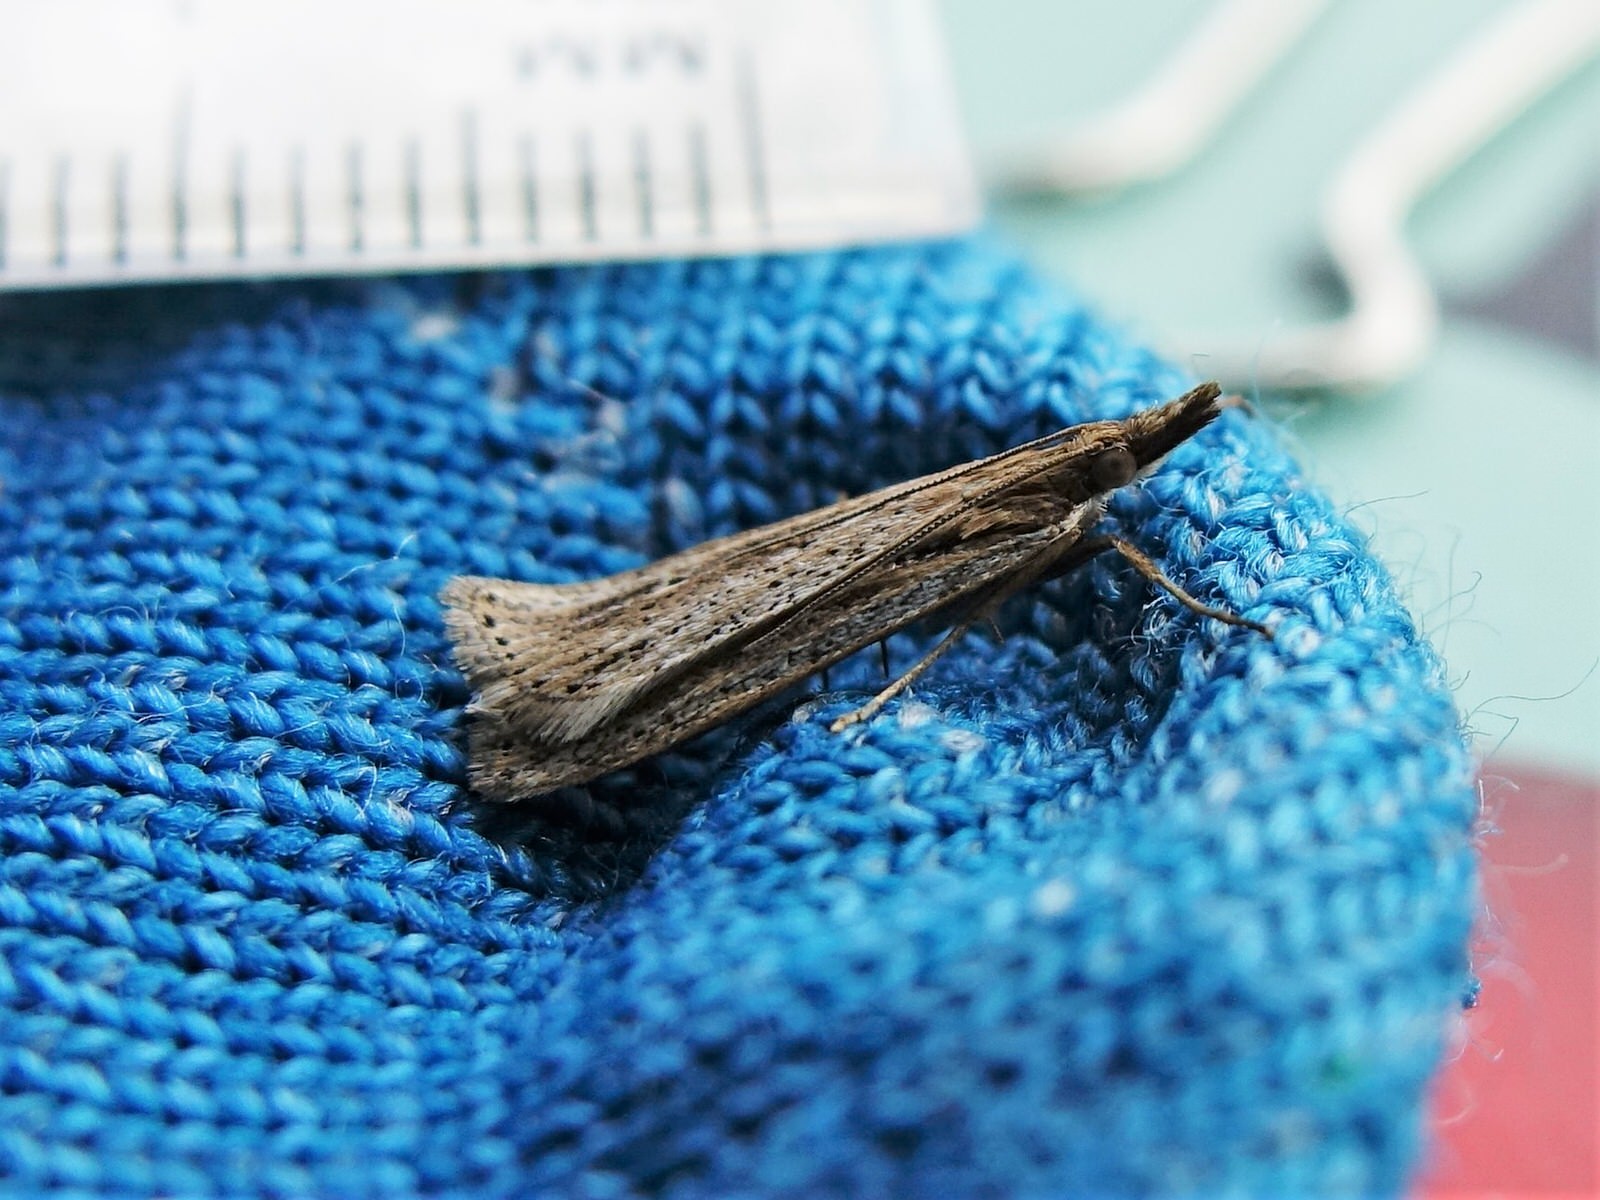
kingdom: Animalia
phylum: Arthropoda
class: Insecta
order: Lepidoptera
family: Crambidae
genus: Eudonia
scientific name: Eudonia sabulosella
